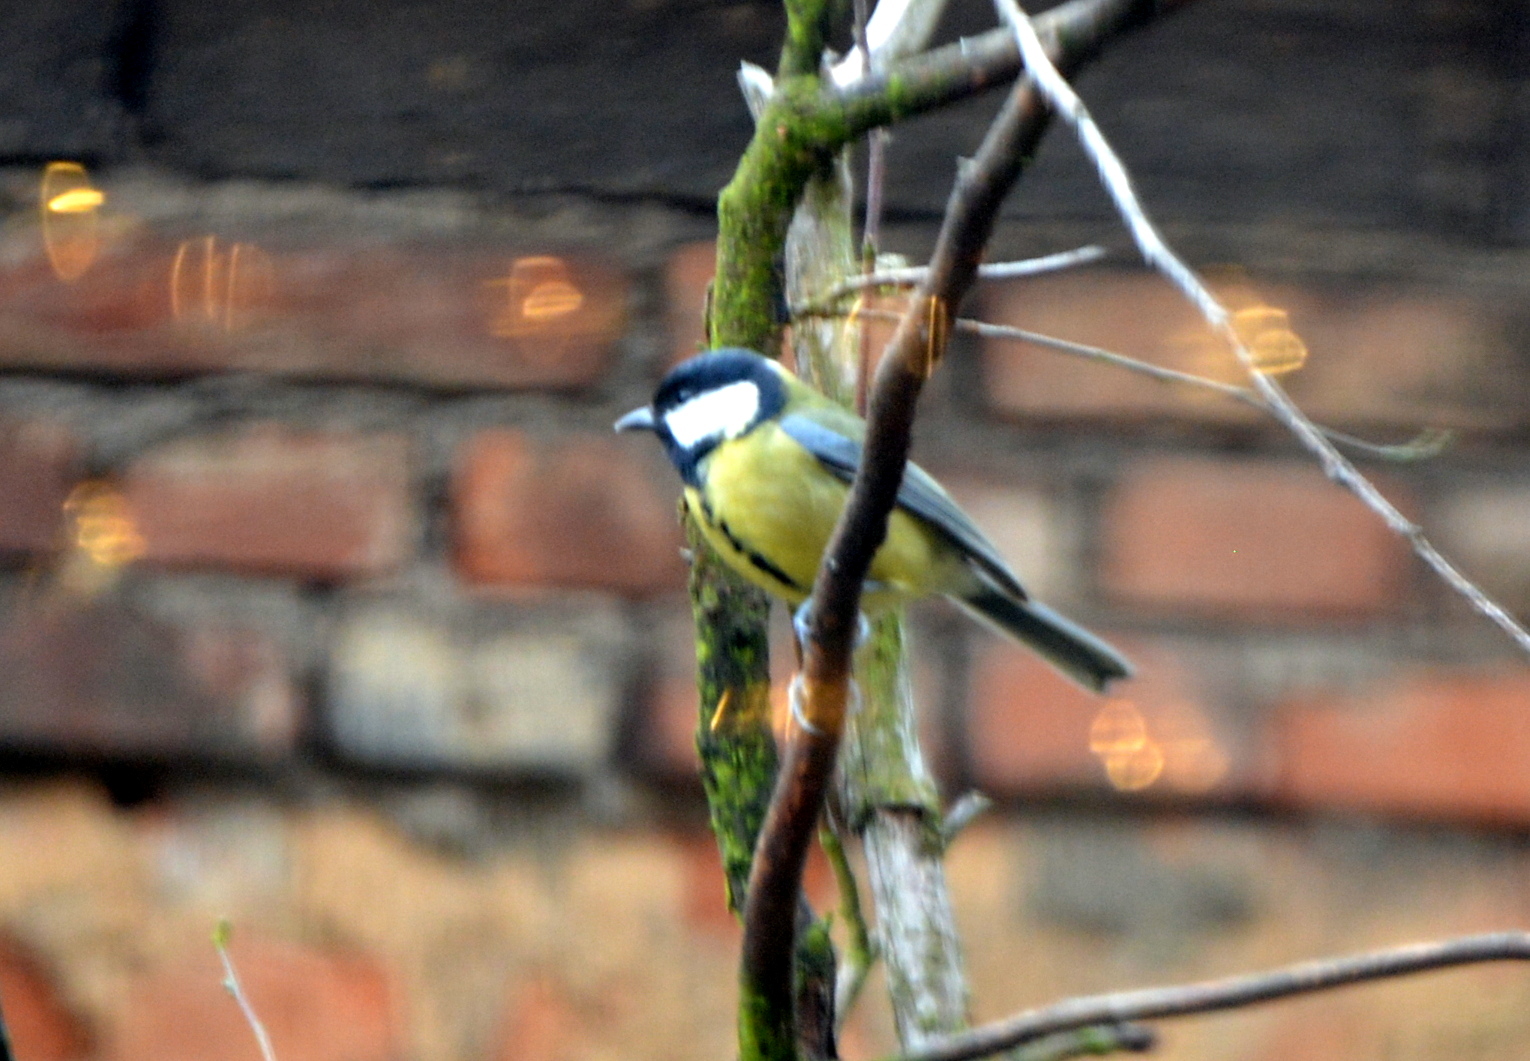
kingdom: Animalia
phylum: Chordata
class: Aves
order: Passeriformes
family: Paridae
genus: Parus
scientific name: Parus major
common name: Great tit
